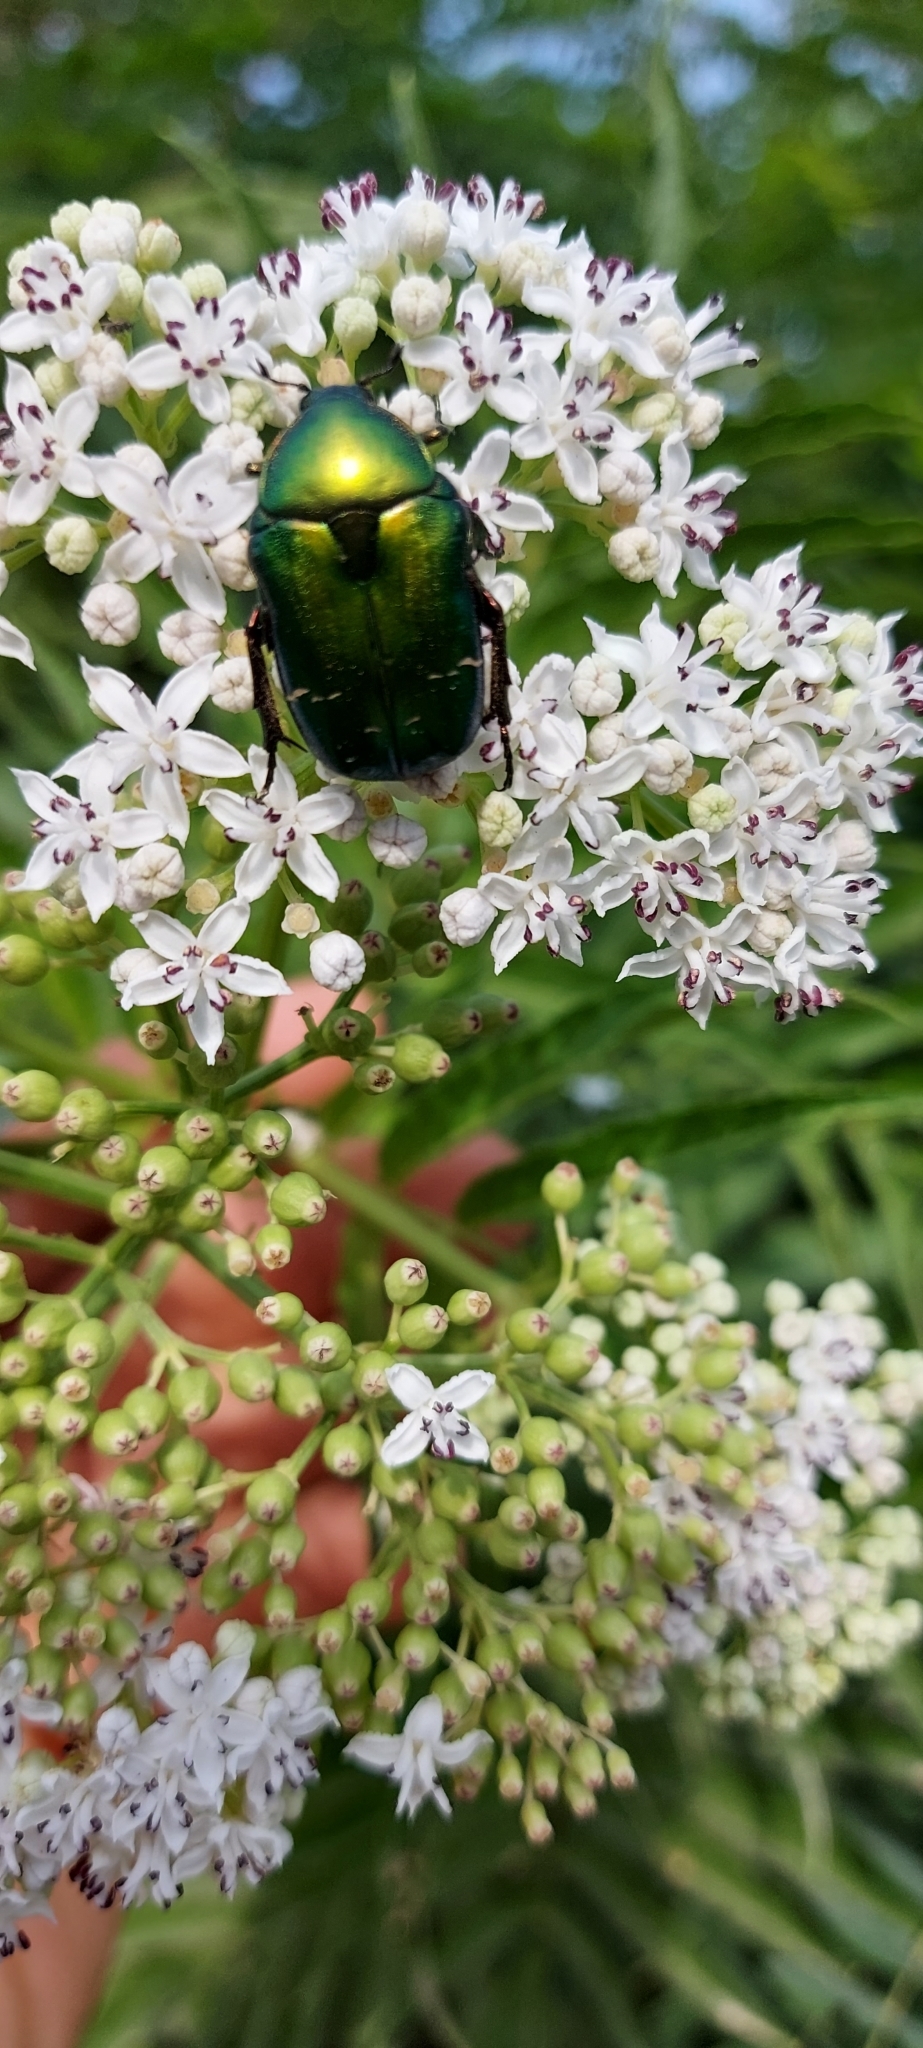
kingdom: Animalia
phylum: Arthropoda
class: Insecta
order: Coleoptera
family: Scarabaeidae
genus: Cetonia
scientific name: Cetonia aurata
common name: Rose chafer
